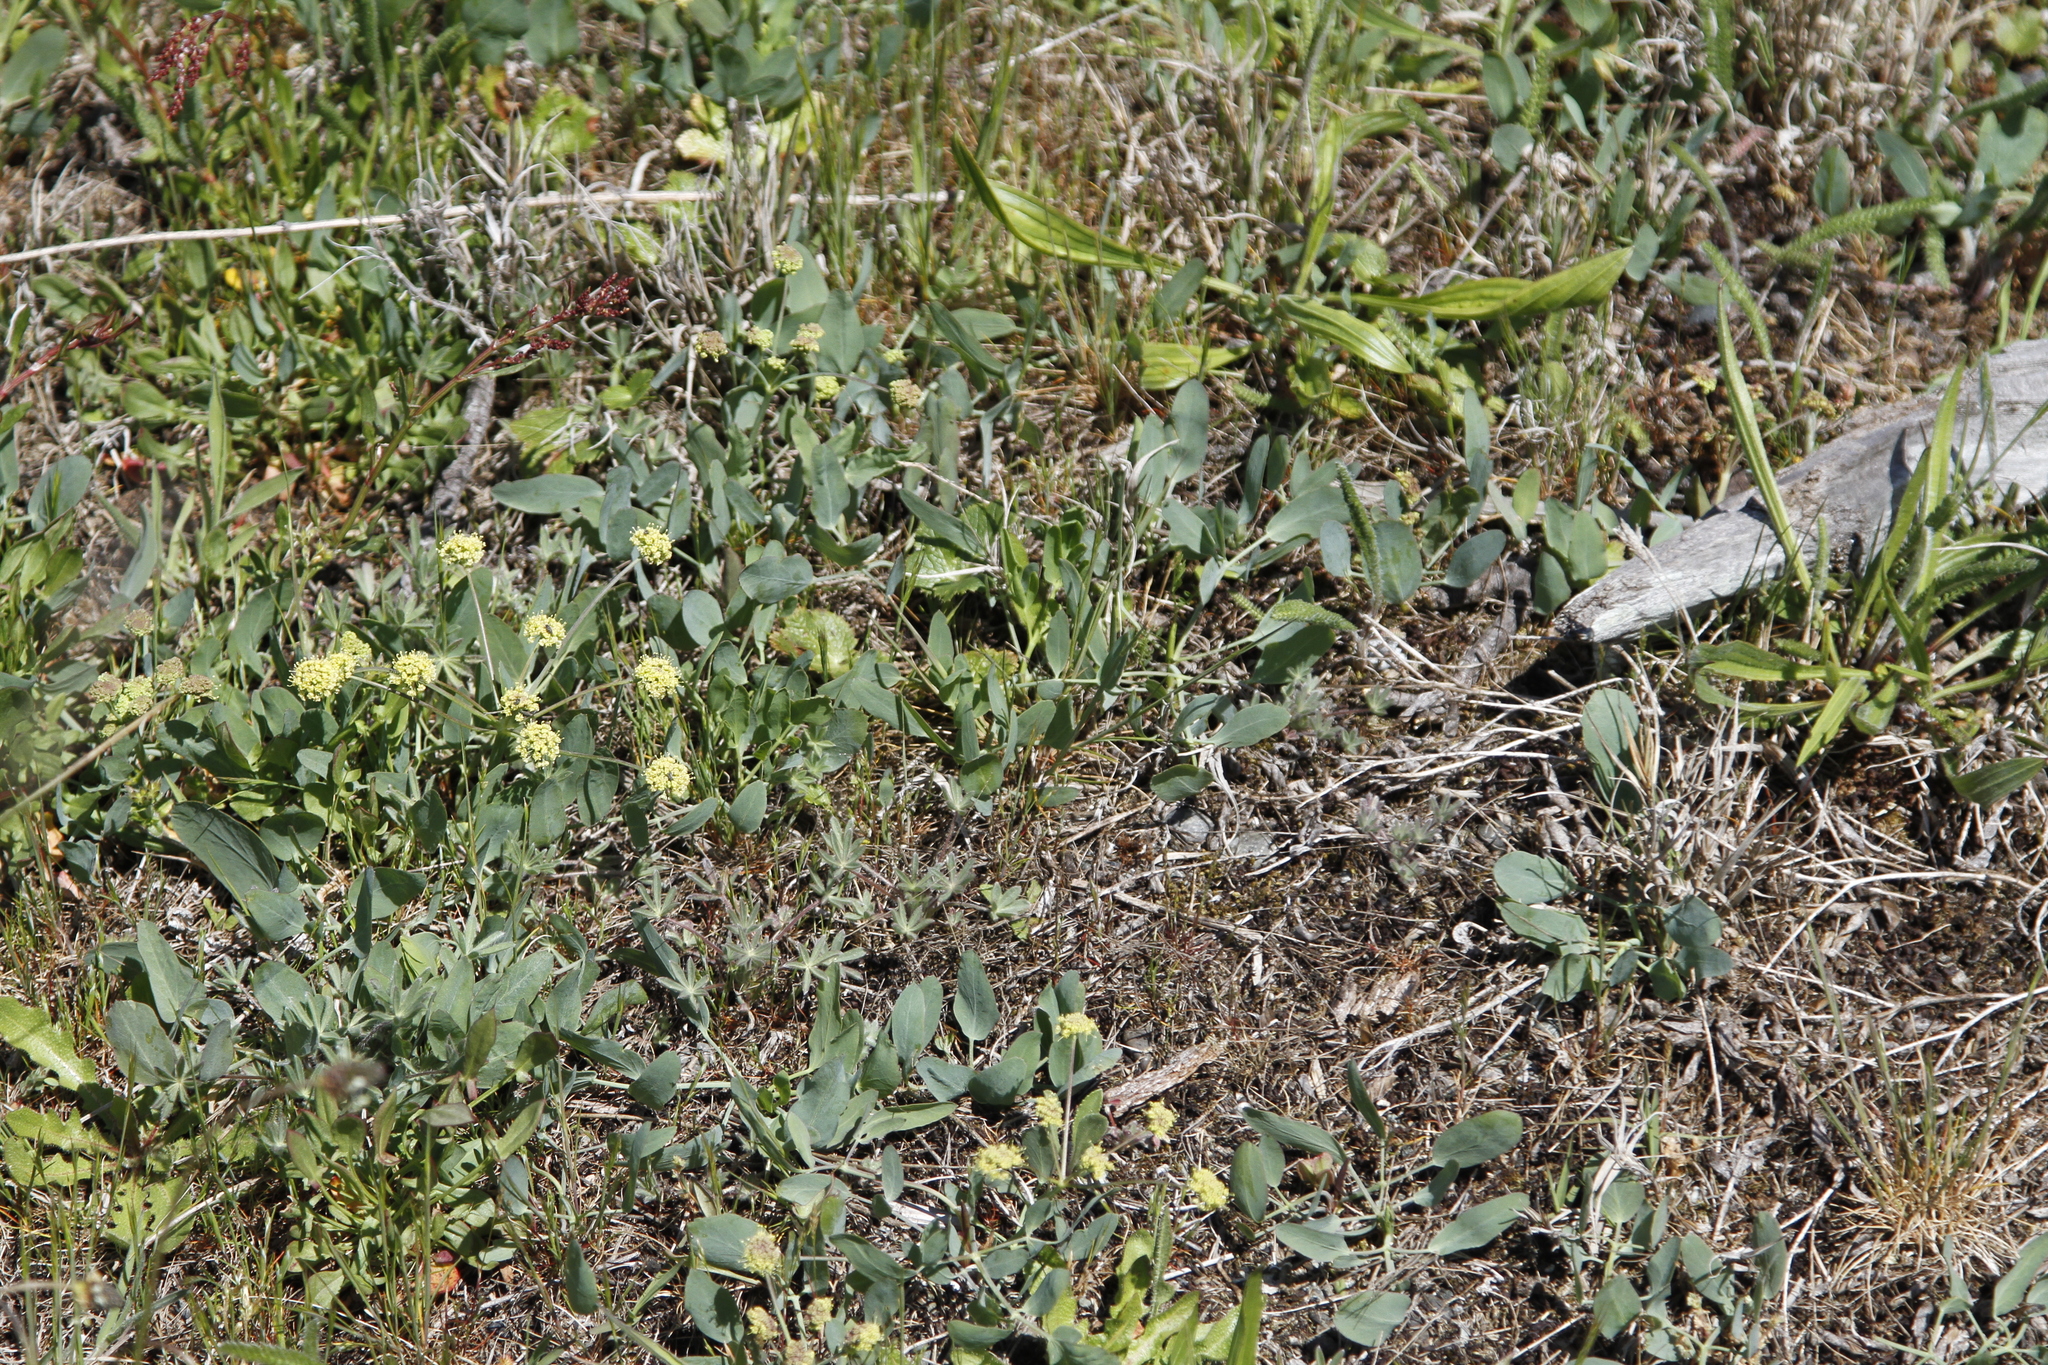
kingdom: Plantae
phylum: Tracheophyta
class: Magnoliopsida
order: Apiales
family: Apiaceae
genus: Lomatium
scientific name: Lomatium nudicaule
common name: Pestle lomatium
